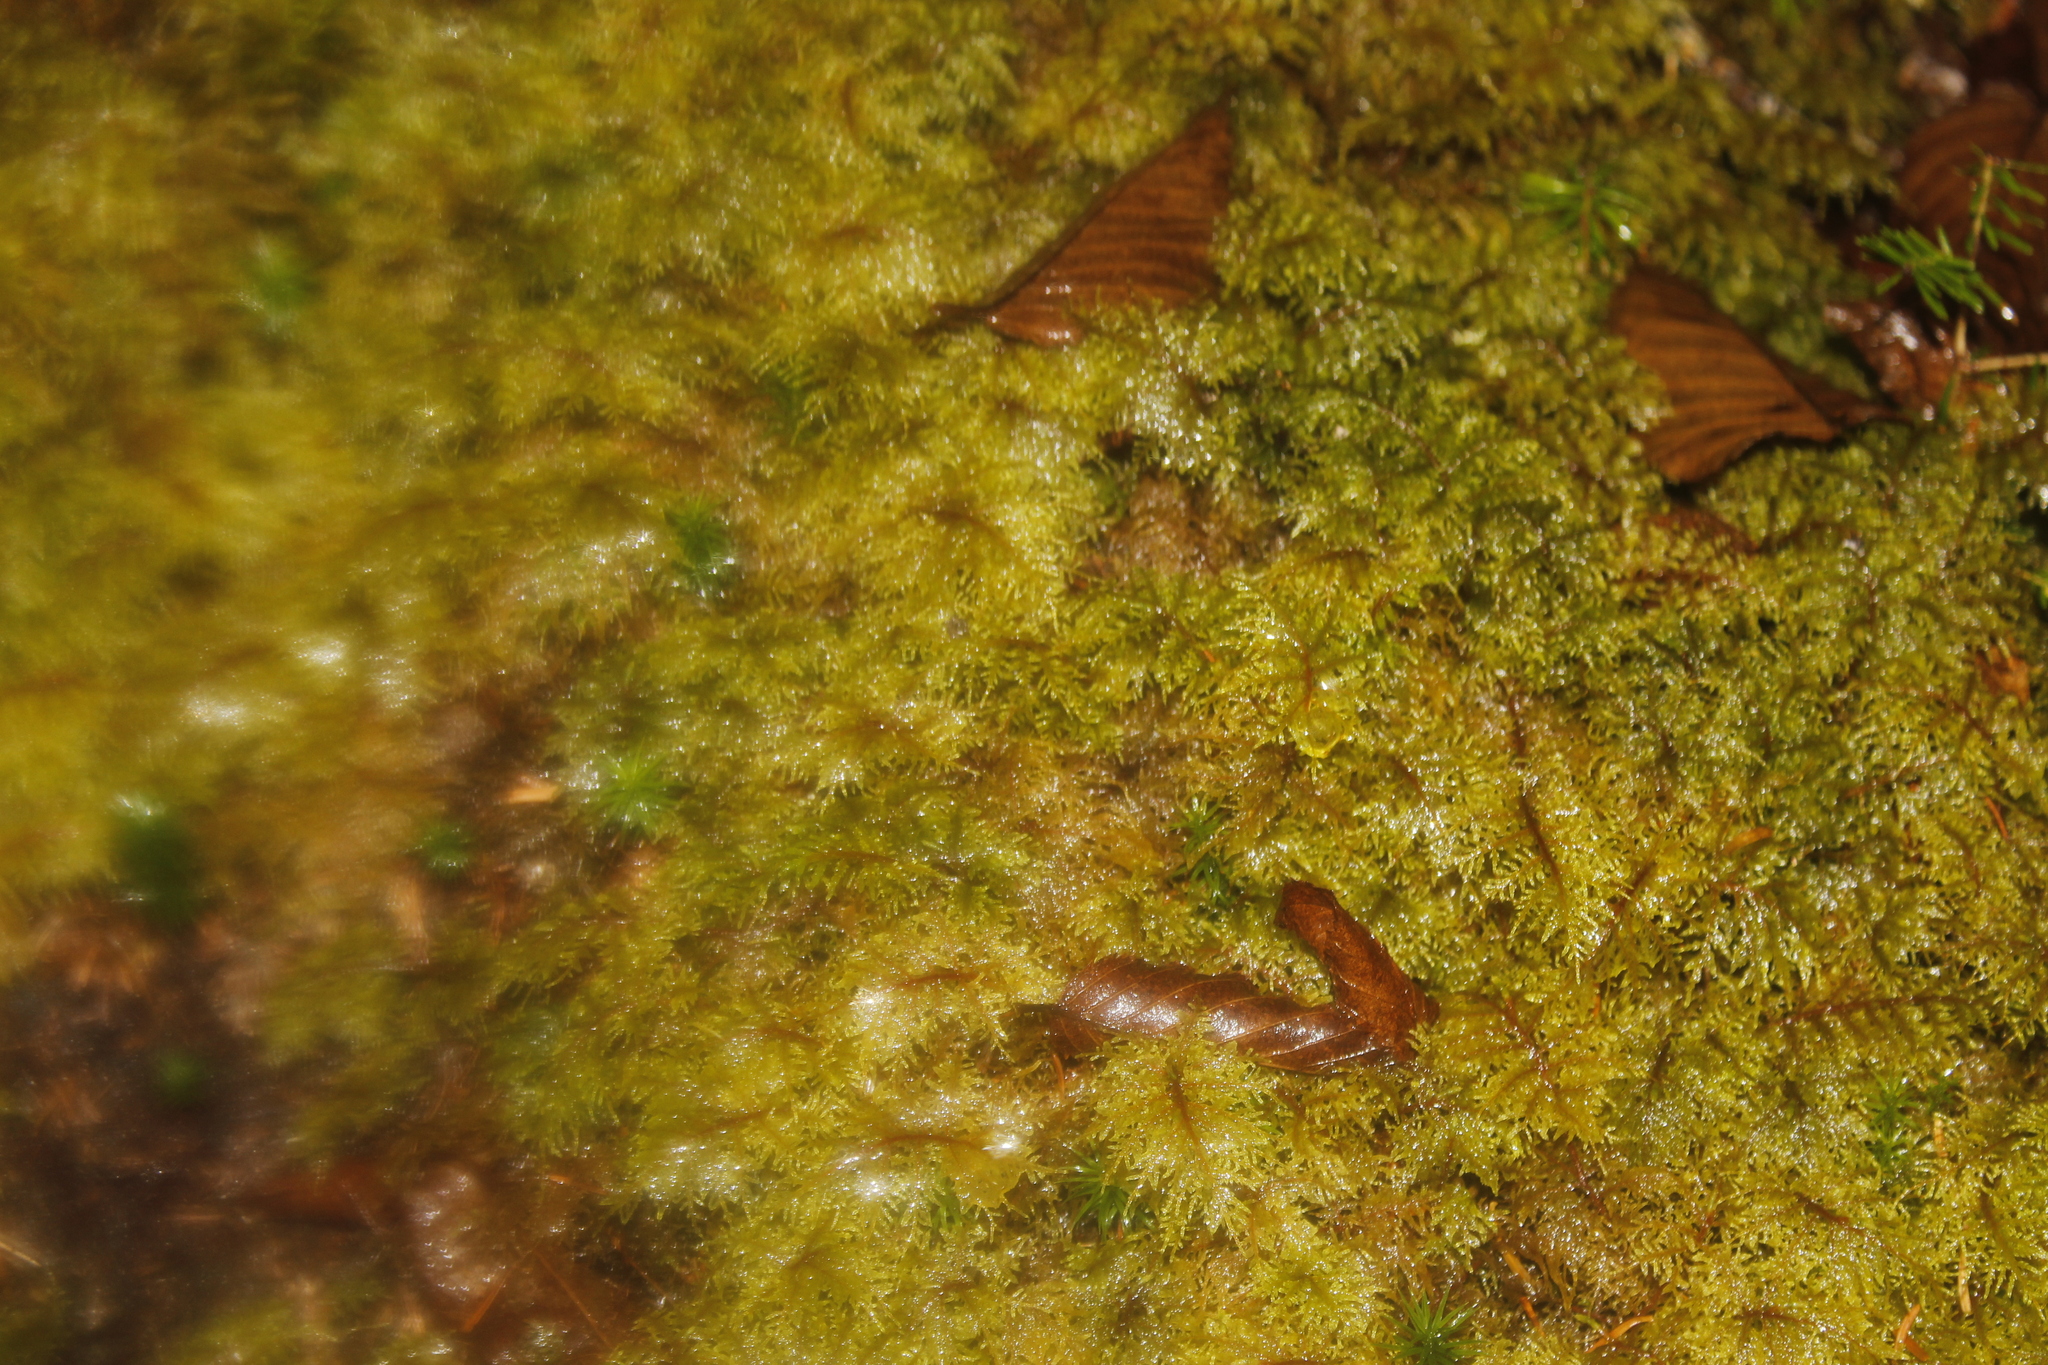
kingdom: Plantae
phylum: Bryophyta
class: Bryopsida
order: Hypnales
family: Hylocomiaceae
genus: Hylocomium
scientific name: Hylocomium splendens
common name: Stairstep moss
